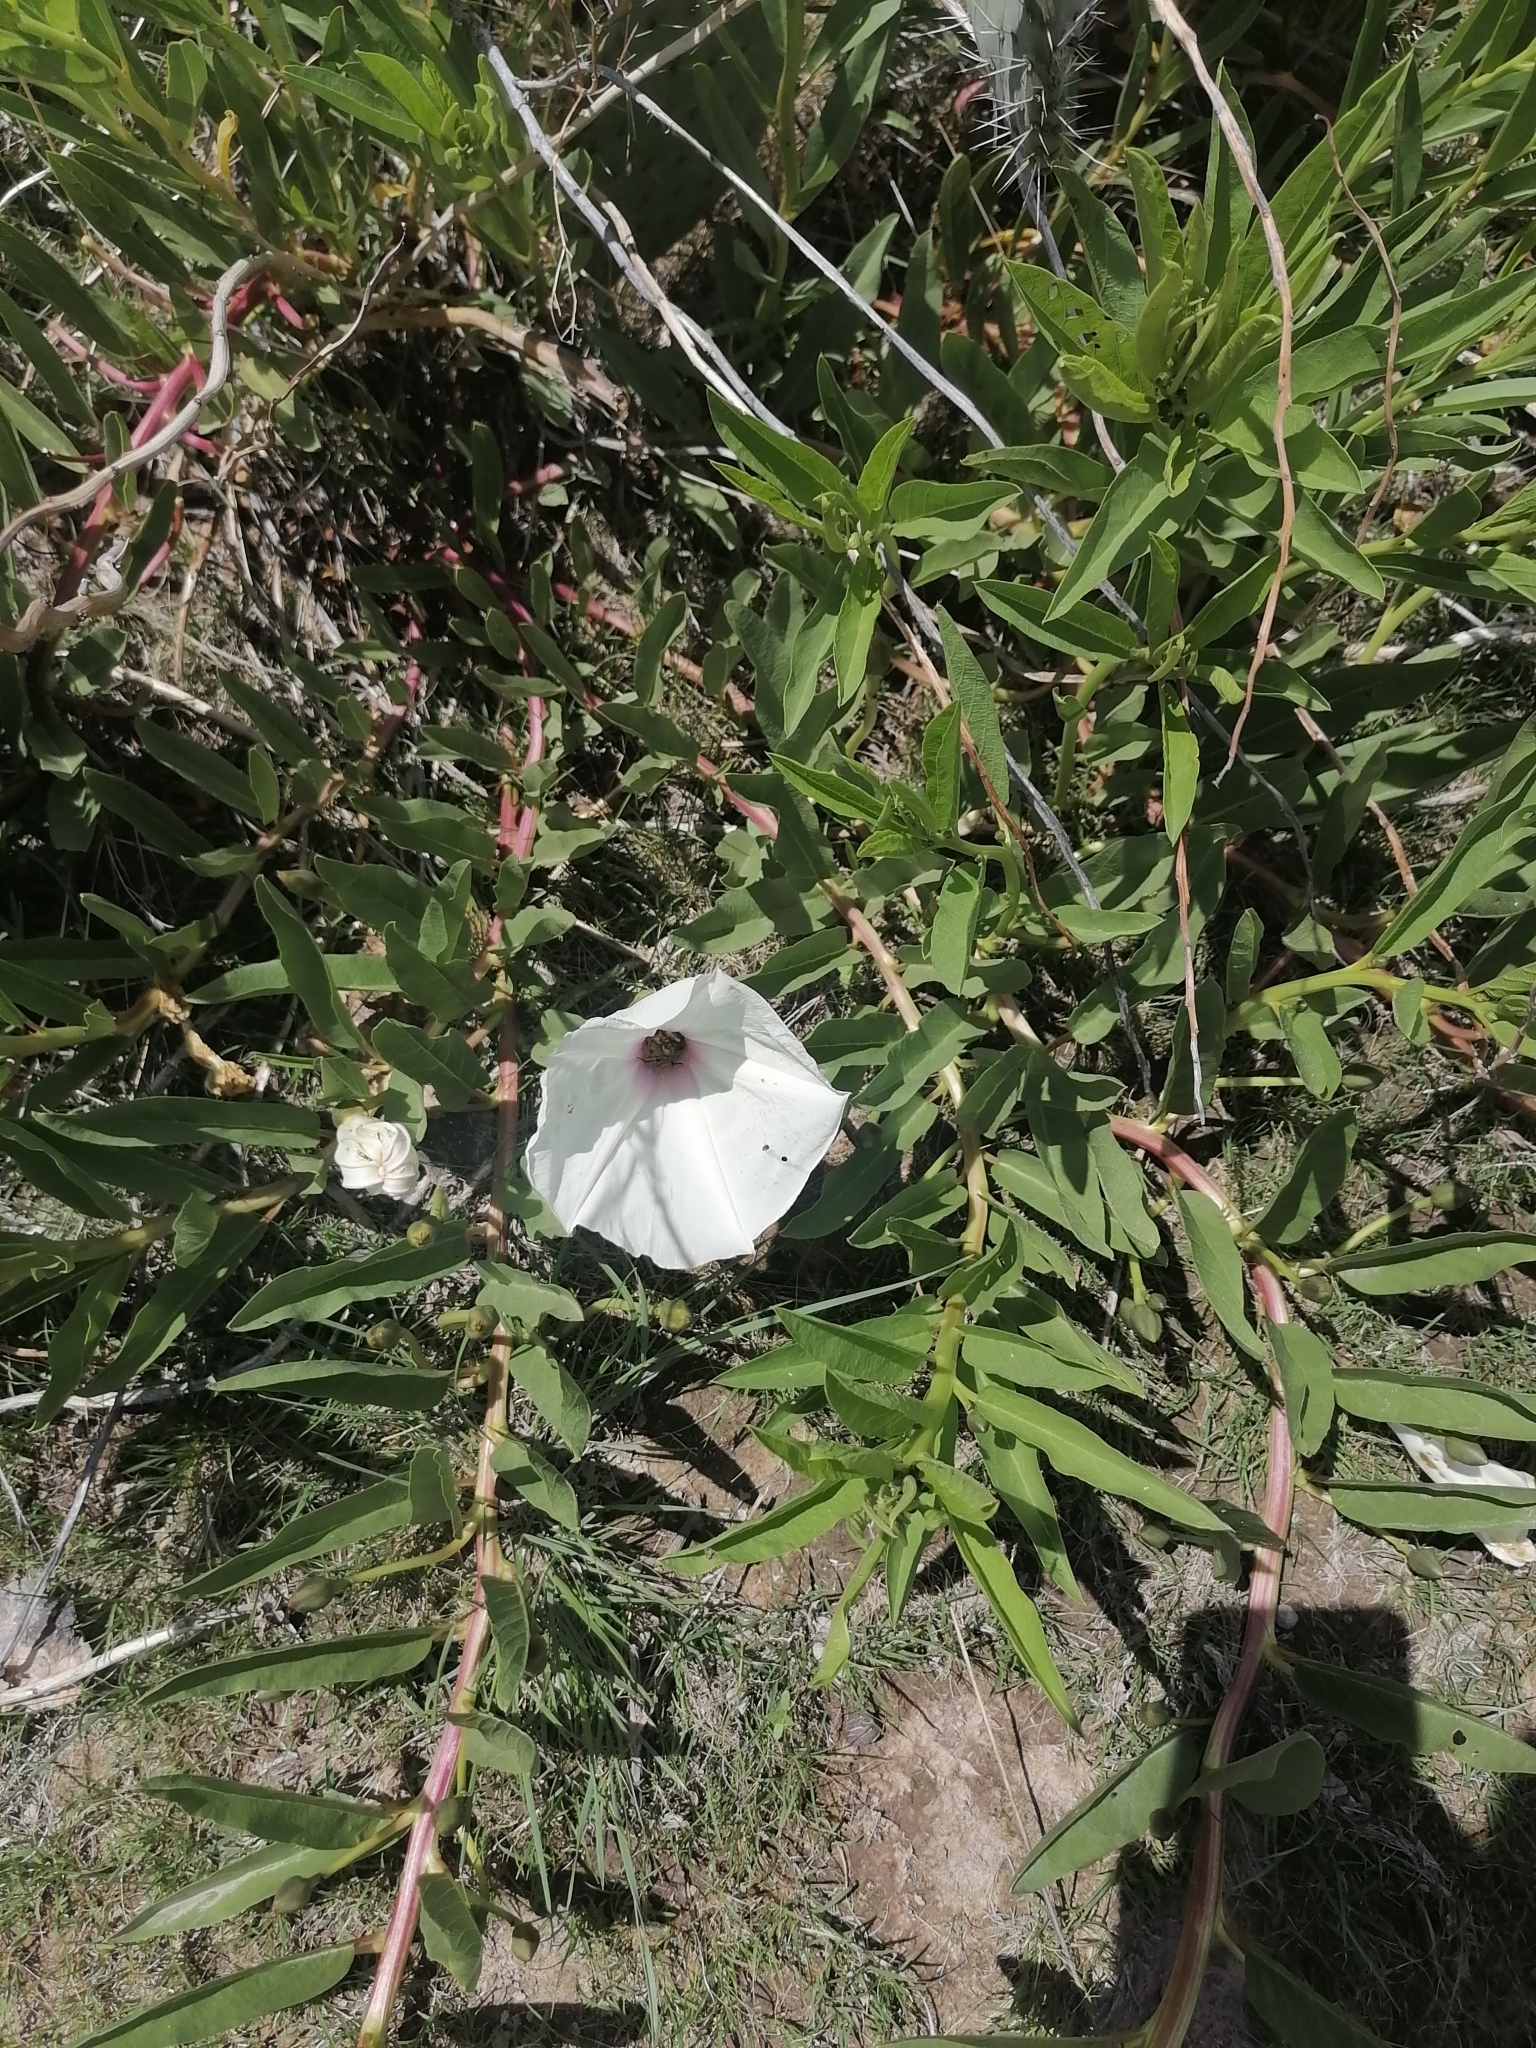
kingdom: Plantae
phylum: Tracheophyta
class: Magnoliopsida
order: Solanales
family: Convolvulaceae
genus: Ipomoea
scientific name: Ipomoea longifolia
